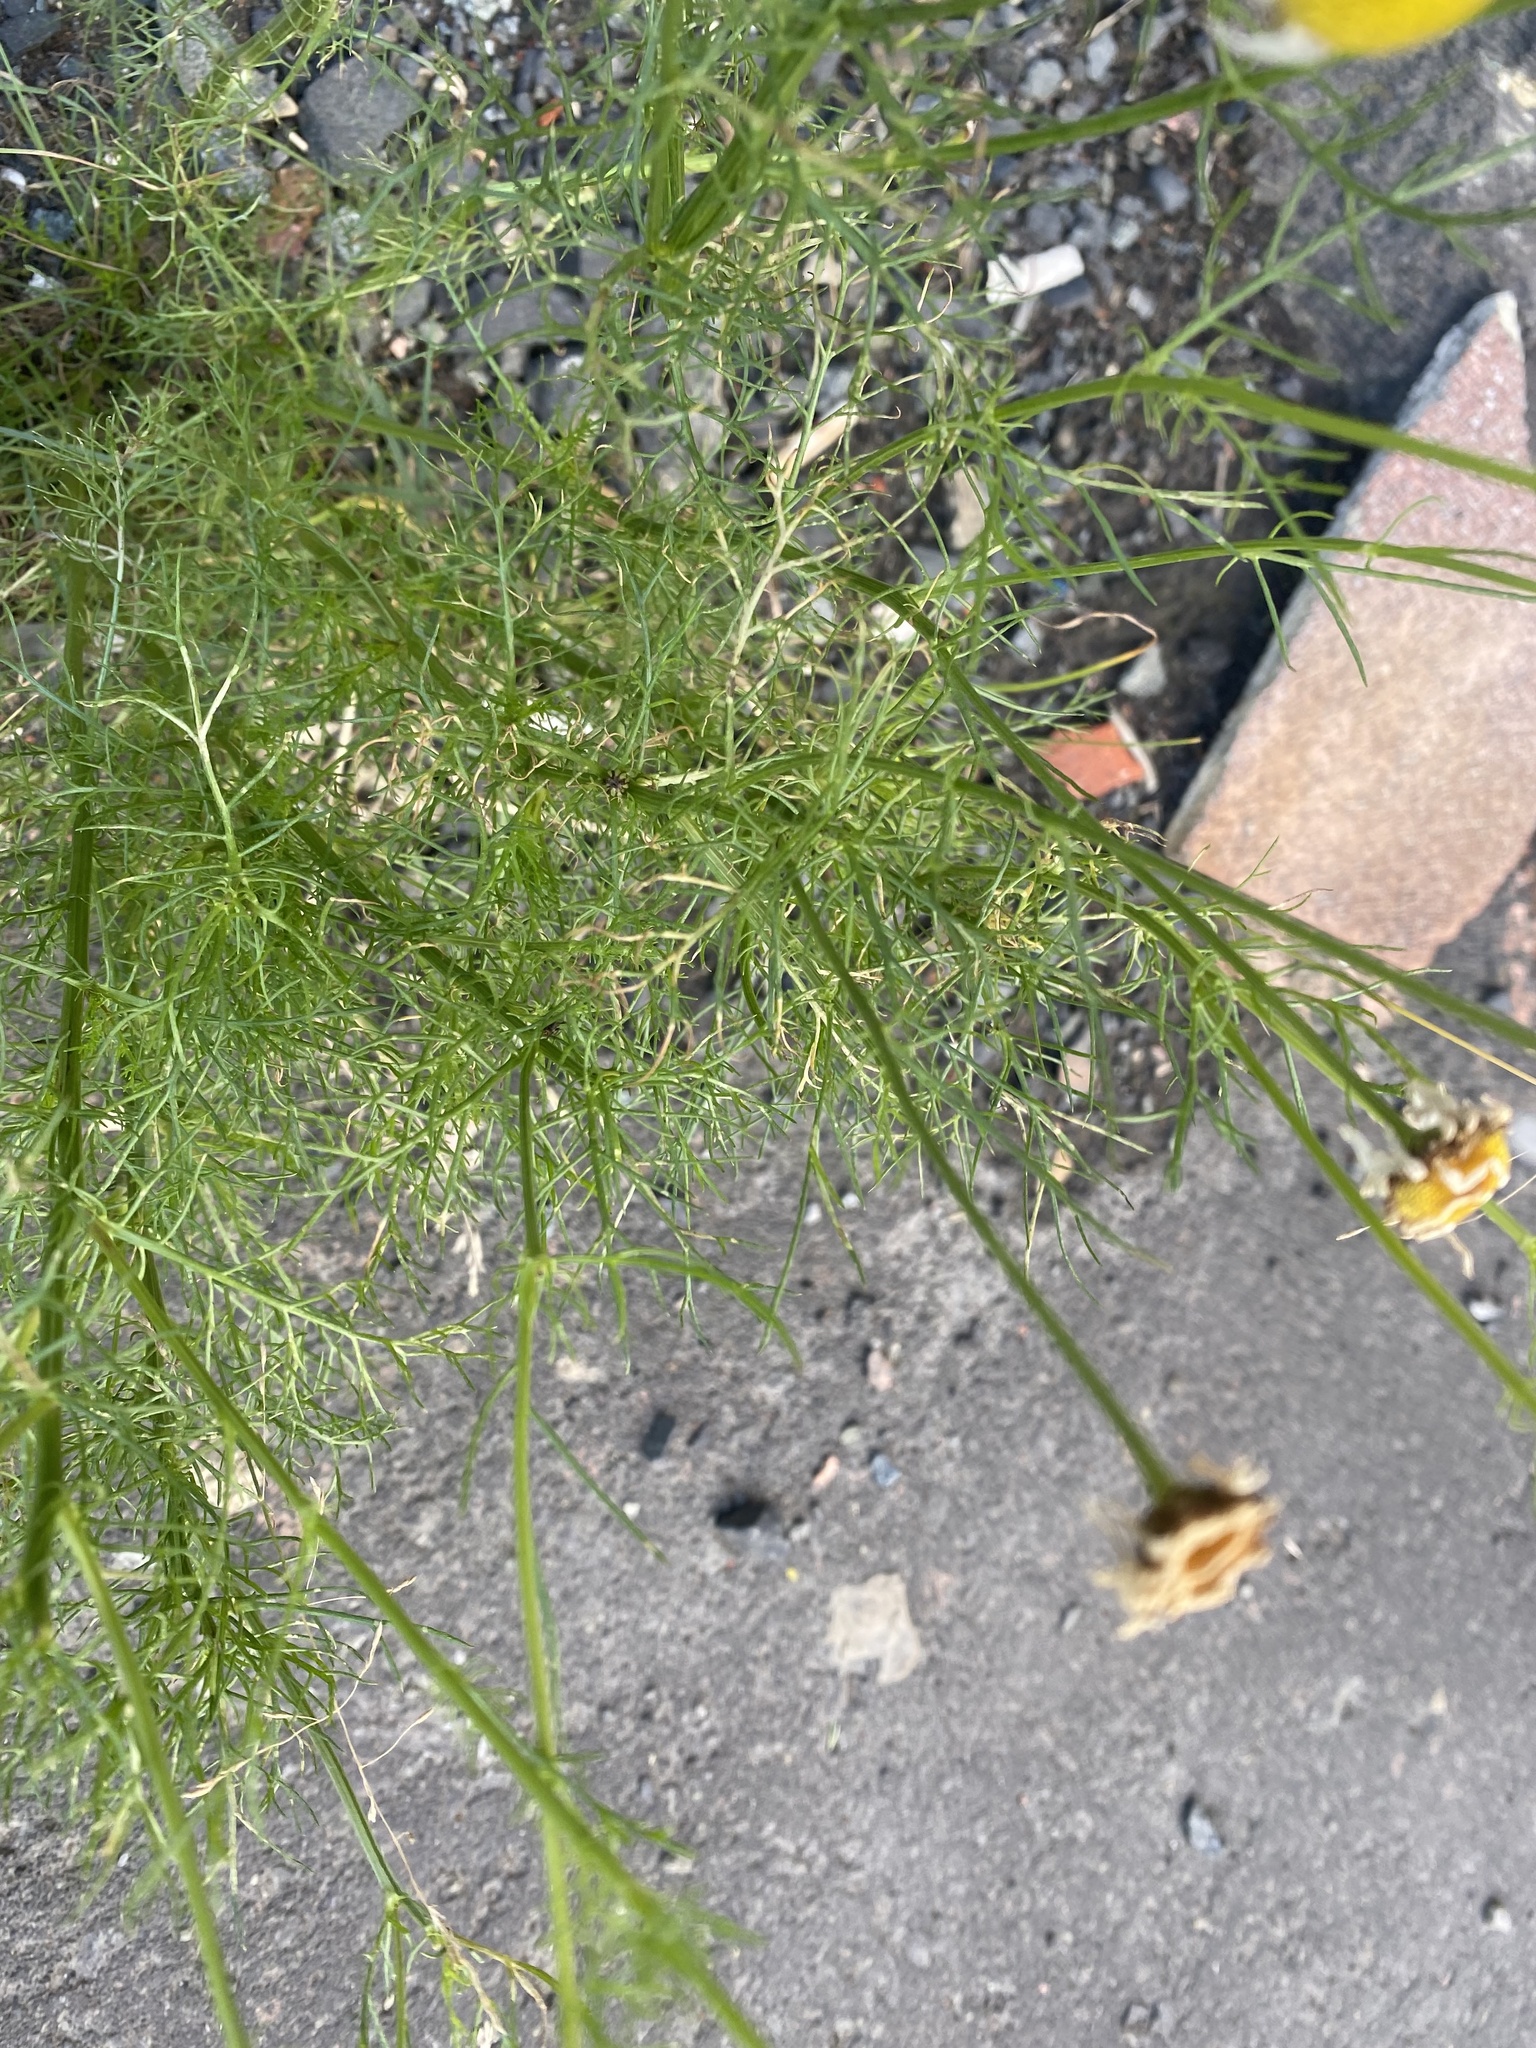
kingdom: Plantae
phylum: Tracheophyta
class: Magnoliopsida
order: Asterales
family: Asteraceae
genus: Tripleurospermum
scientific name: Tripleurospermum hookeri
